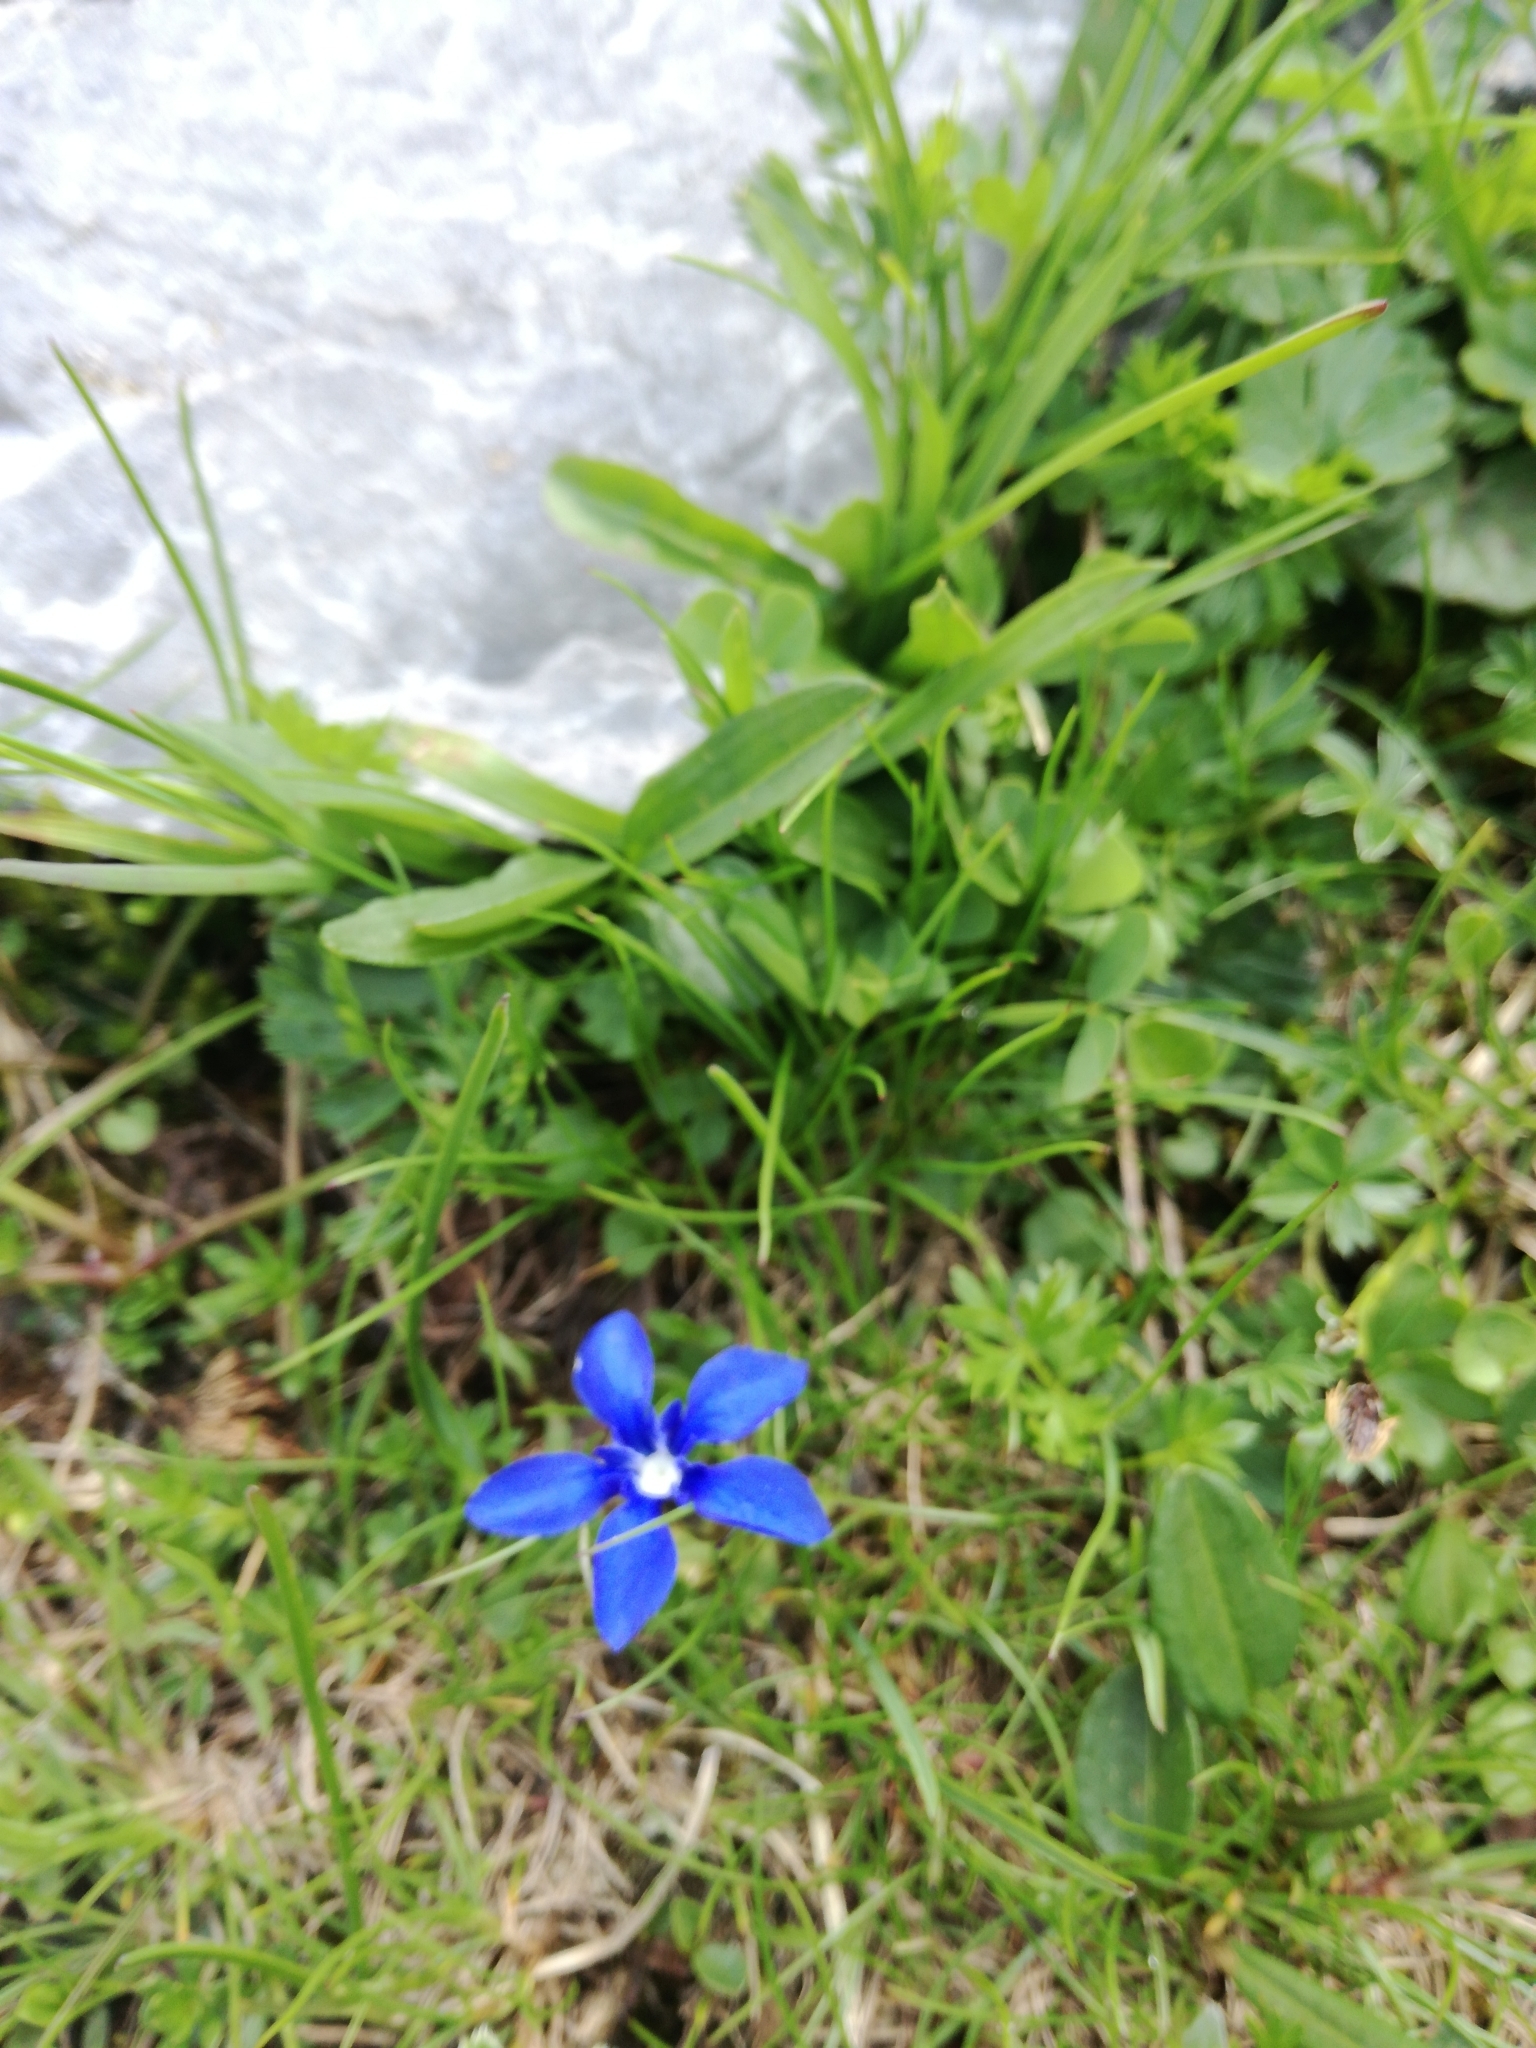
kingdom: Plantae
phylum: Tracheophyta
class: Magnoliopsida
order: Gentianales
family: Gentianaceae
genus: Gentiana
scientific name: Gentiana verna
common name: Spring gentian
